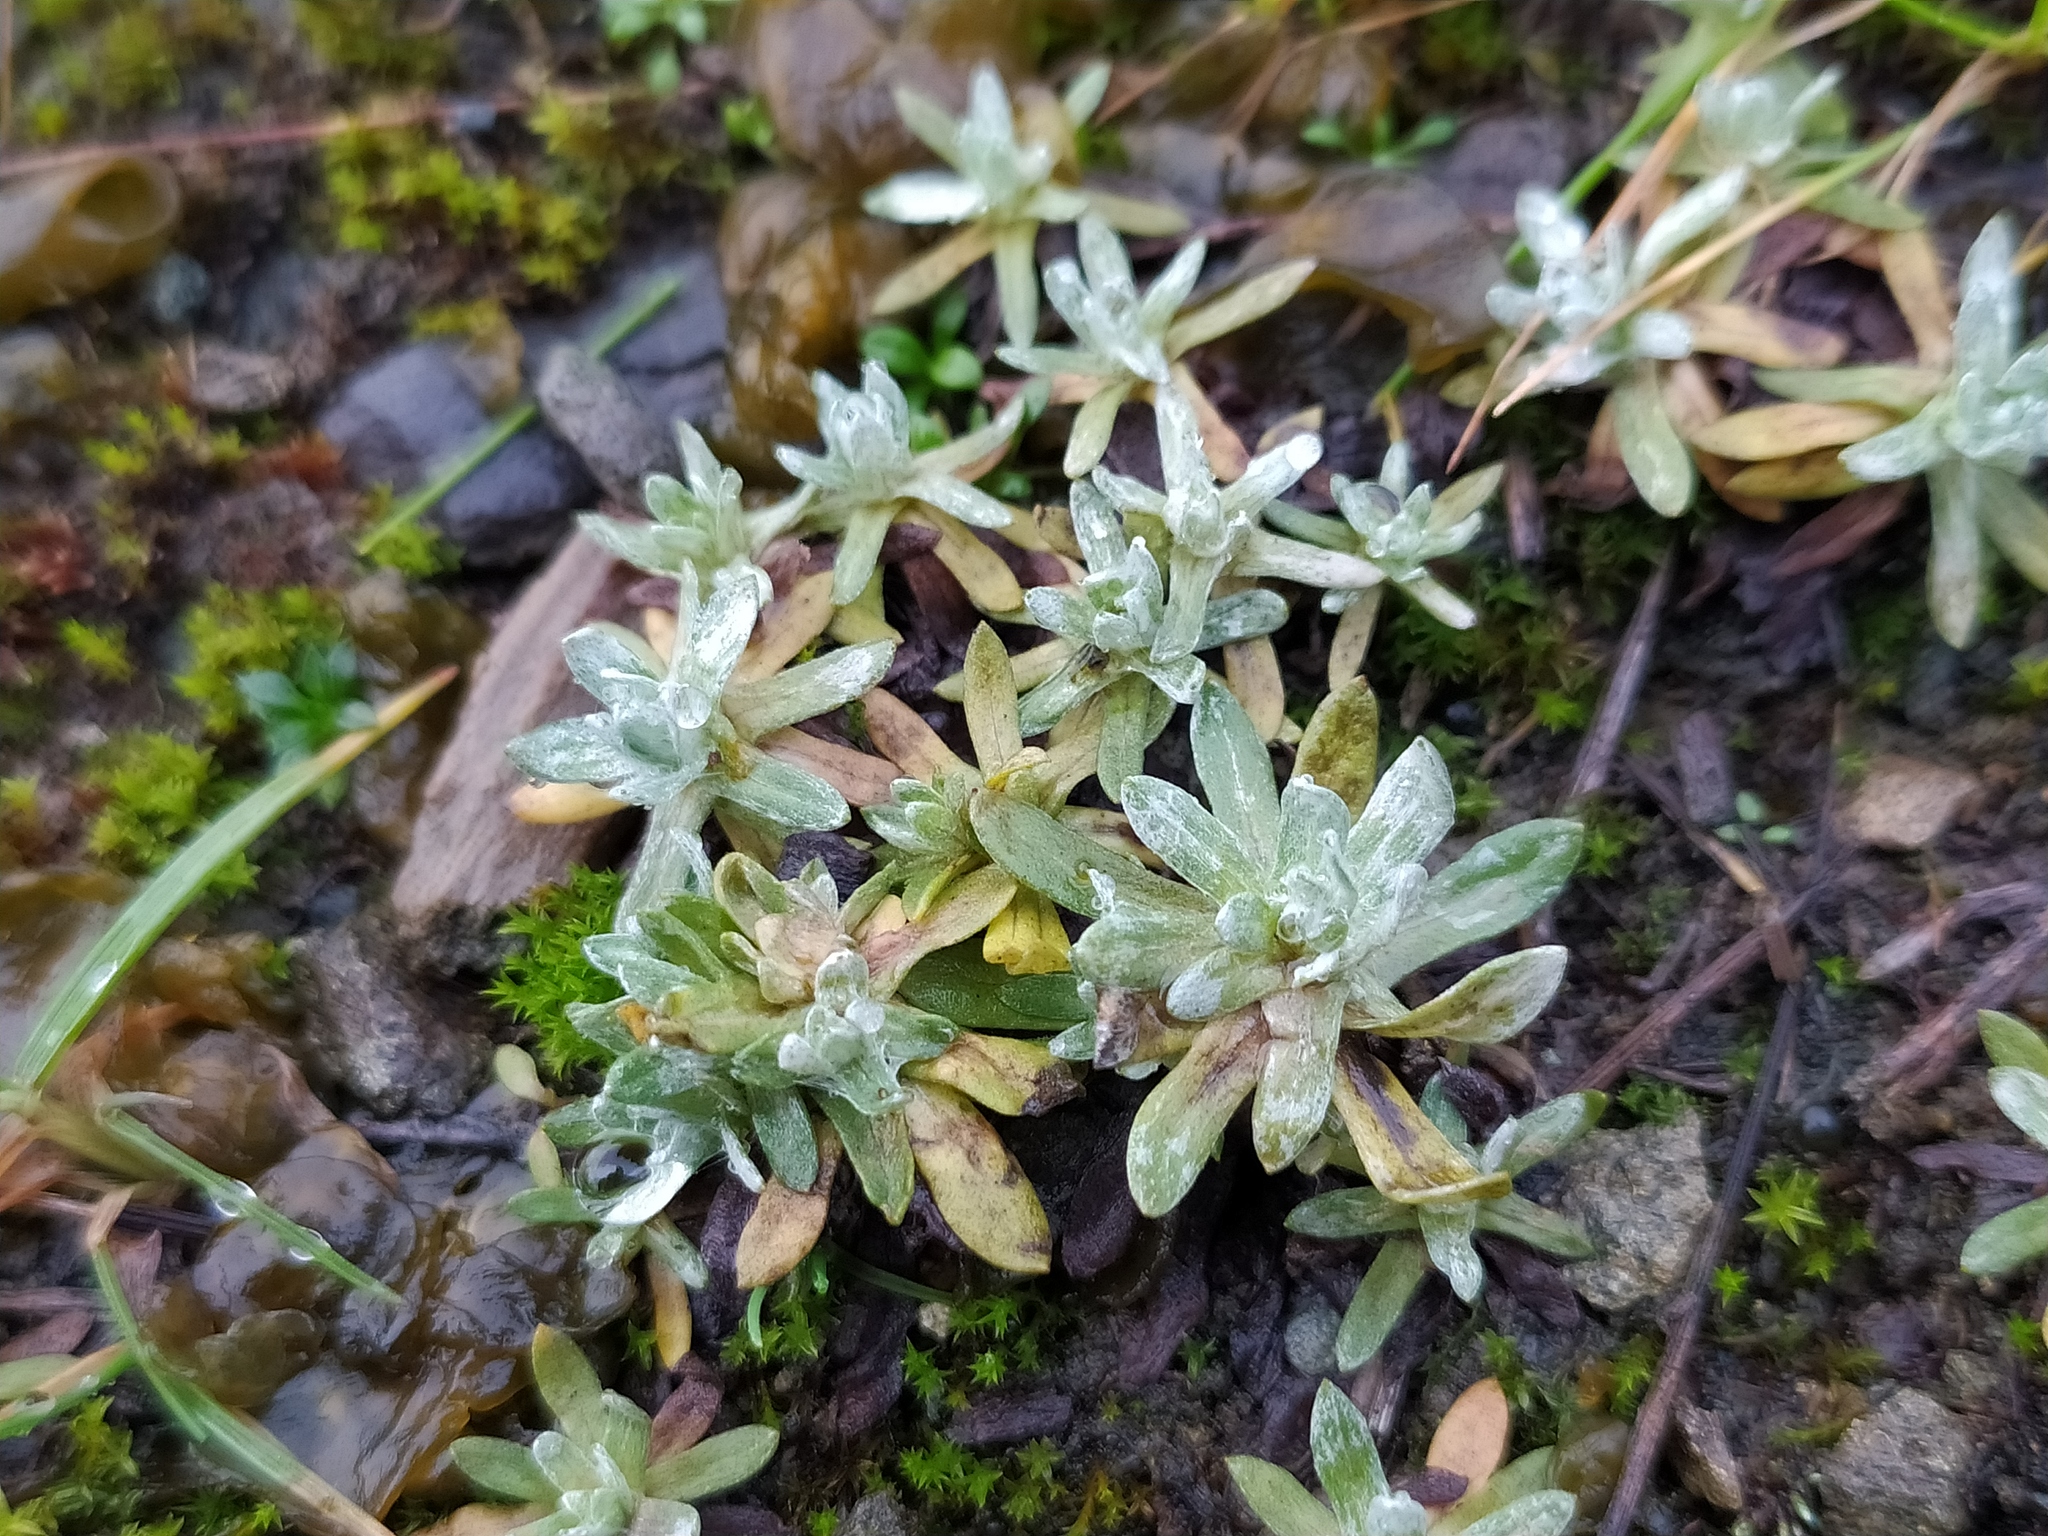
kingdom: Plantae
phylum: Tracheophyta
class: Magnoliopsida
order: Asterales
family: Asteraceae
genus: Logfia
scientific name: Logfia minima
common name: Little cottonrose
